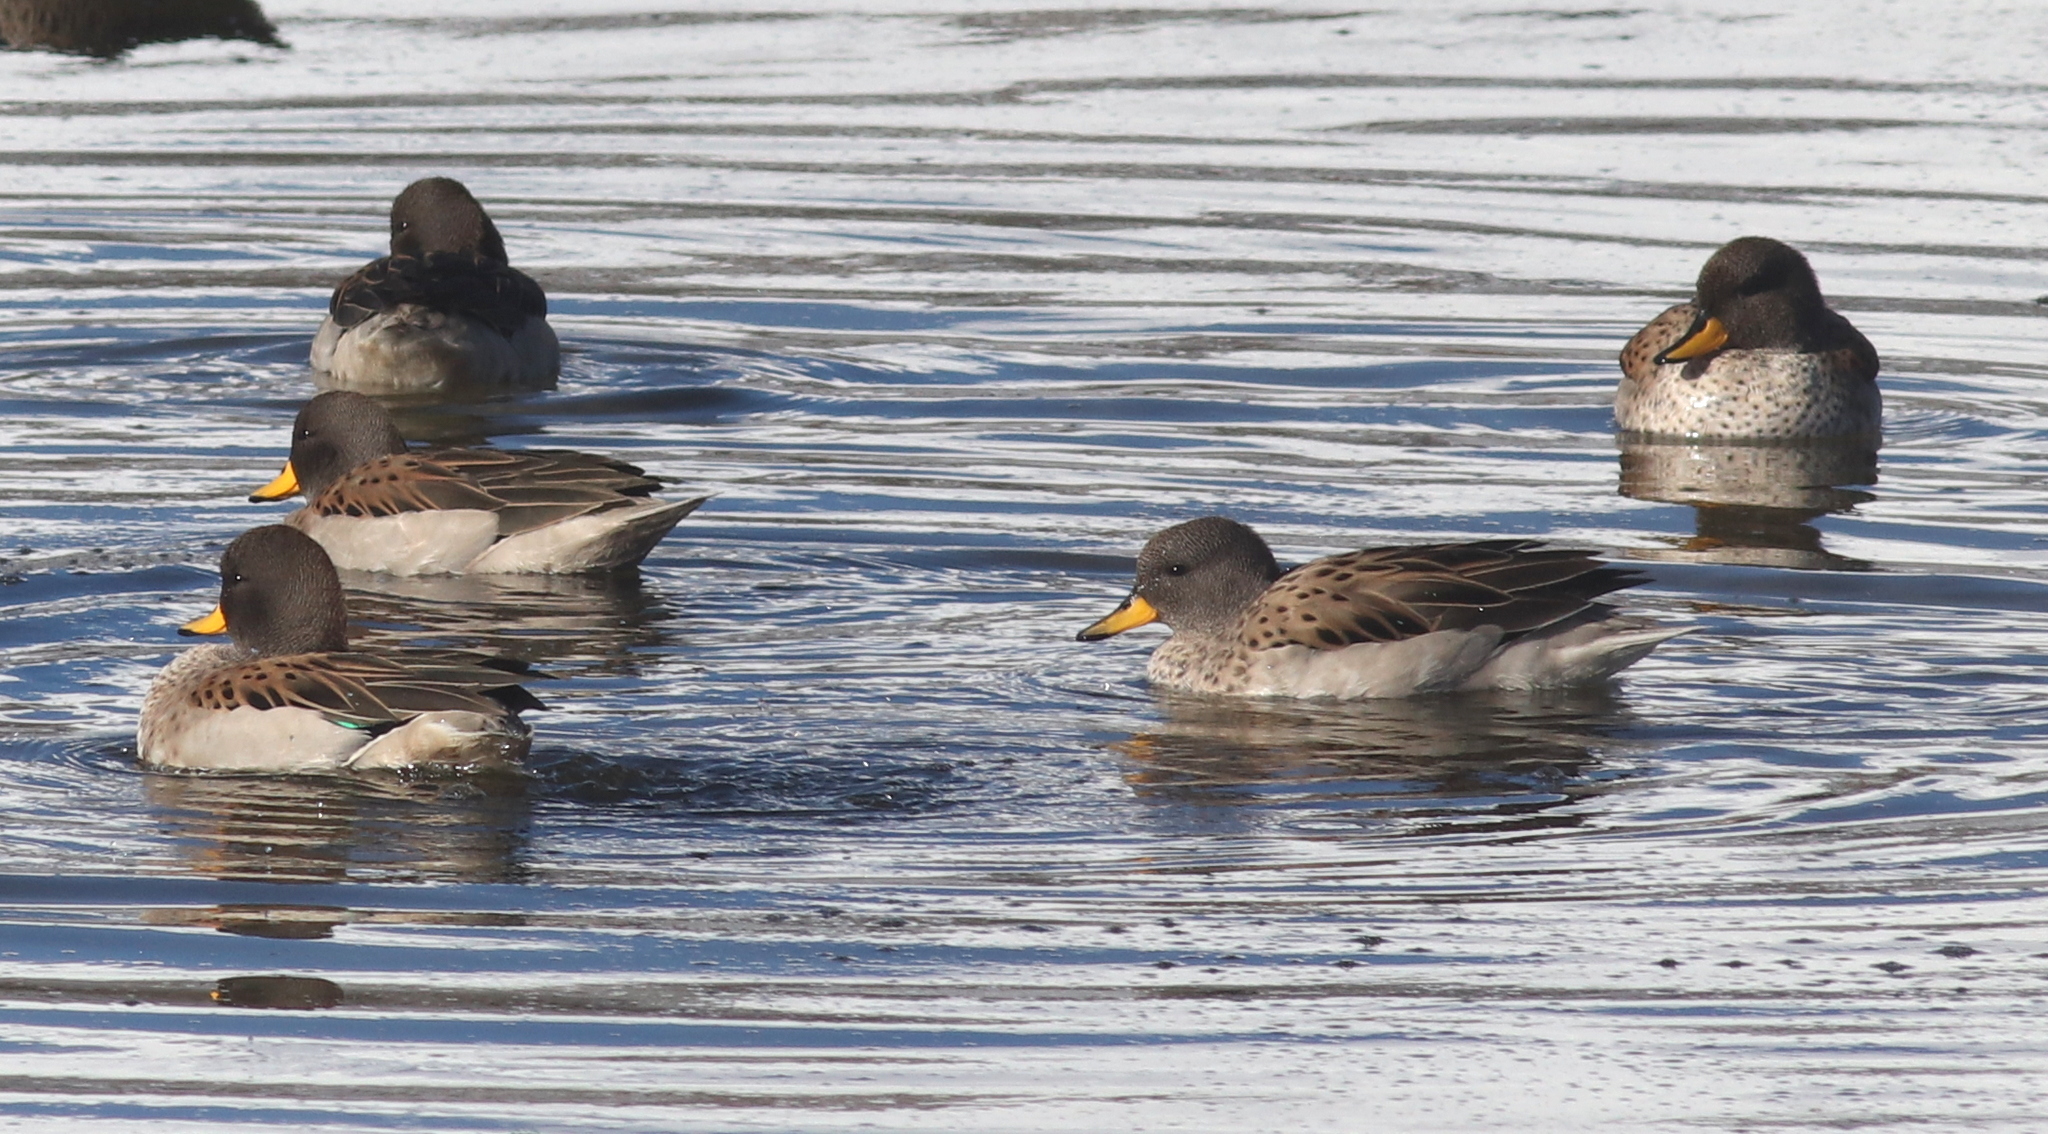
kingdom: Animalia
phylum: Chordata
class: Aves
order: Anseriformes
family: Anatidae
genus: Anas
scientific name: Anas flavirostris
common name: Yellow-billed teal
